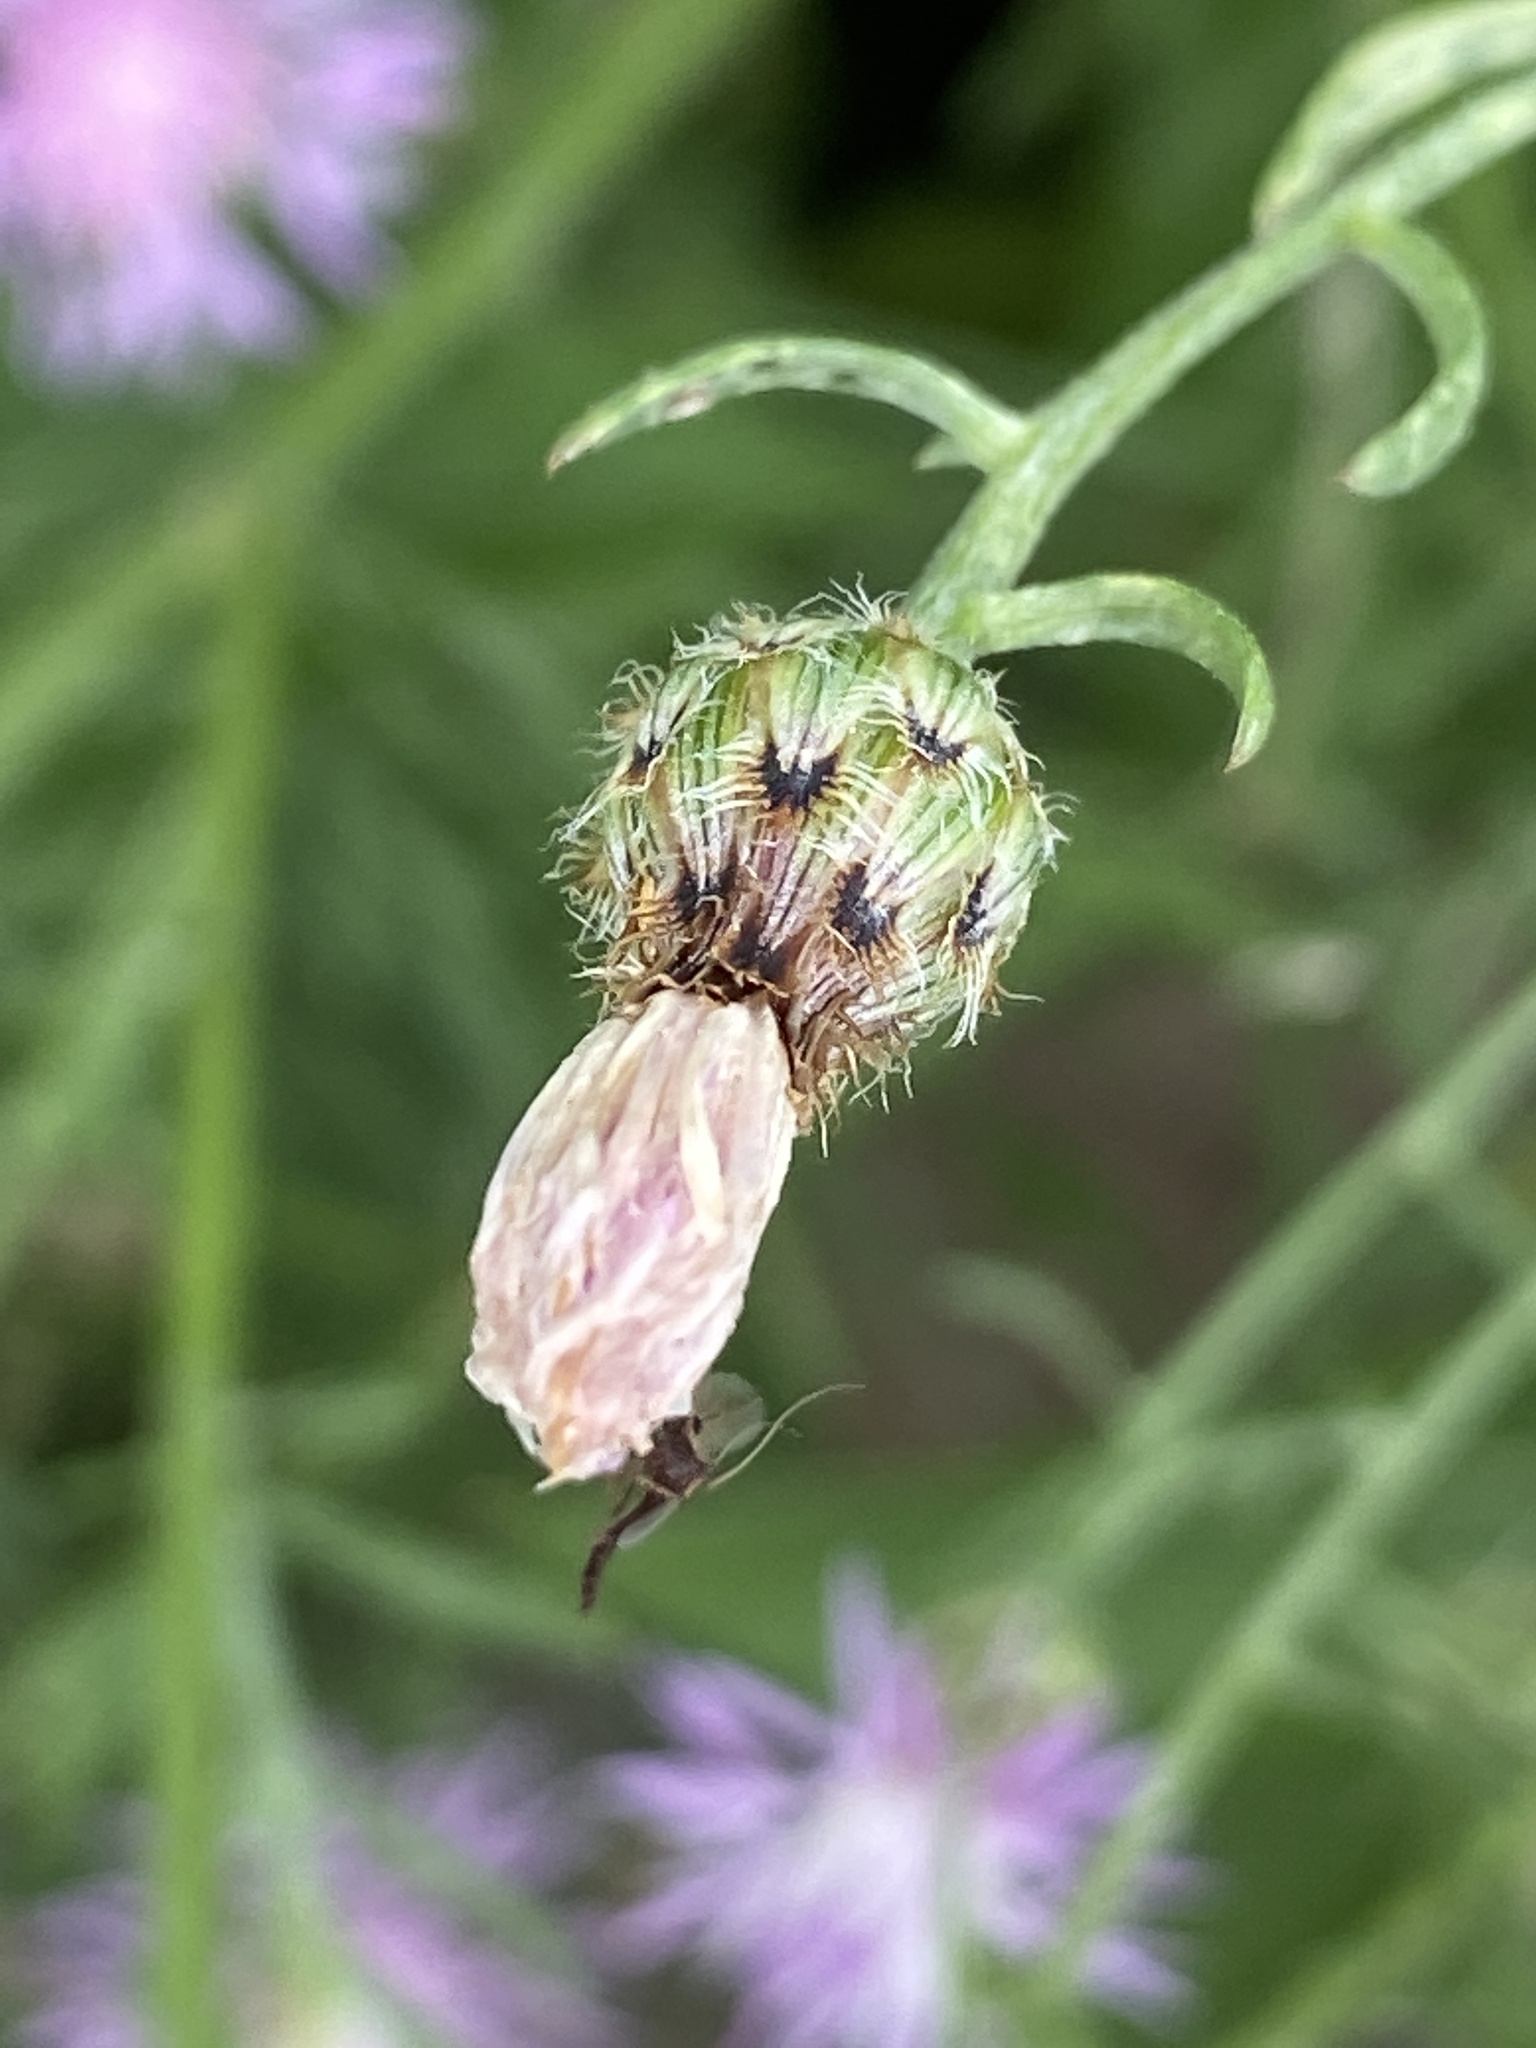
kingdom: Plantae
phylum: Tracheophyta
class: Magnoliopsida
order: Asterales
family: Asteraceae
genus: Centaurea
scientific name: Centaurea stoebe
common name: Spotted knapweed
